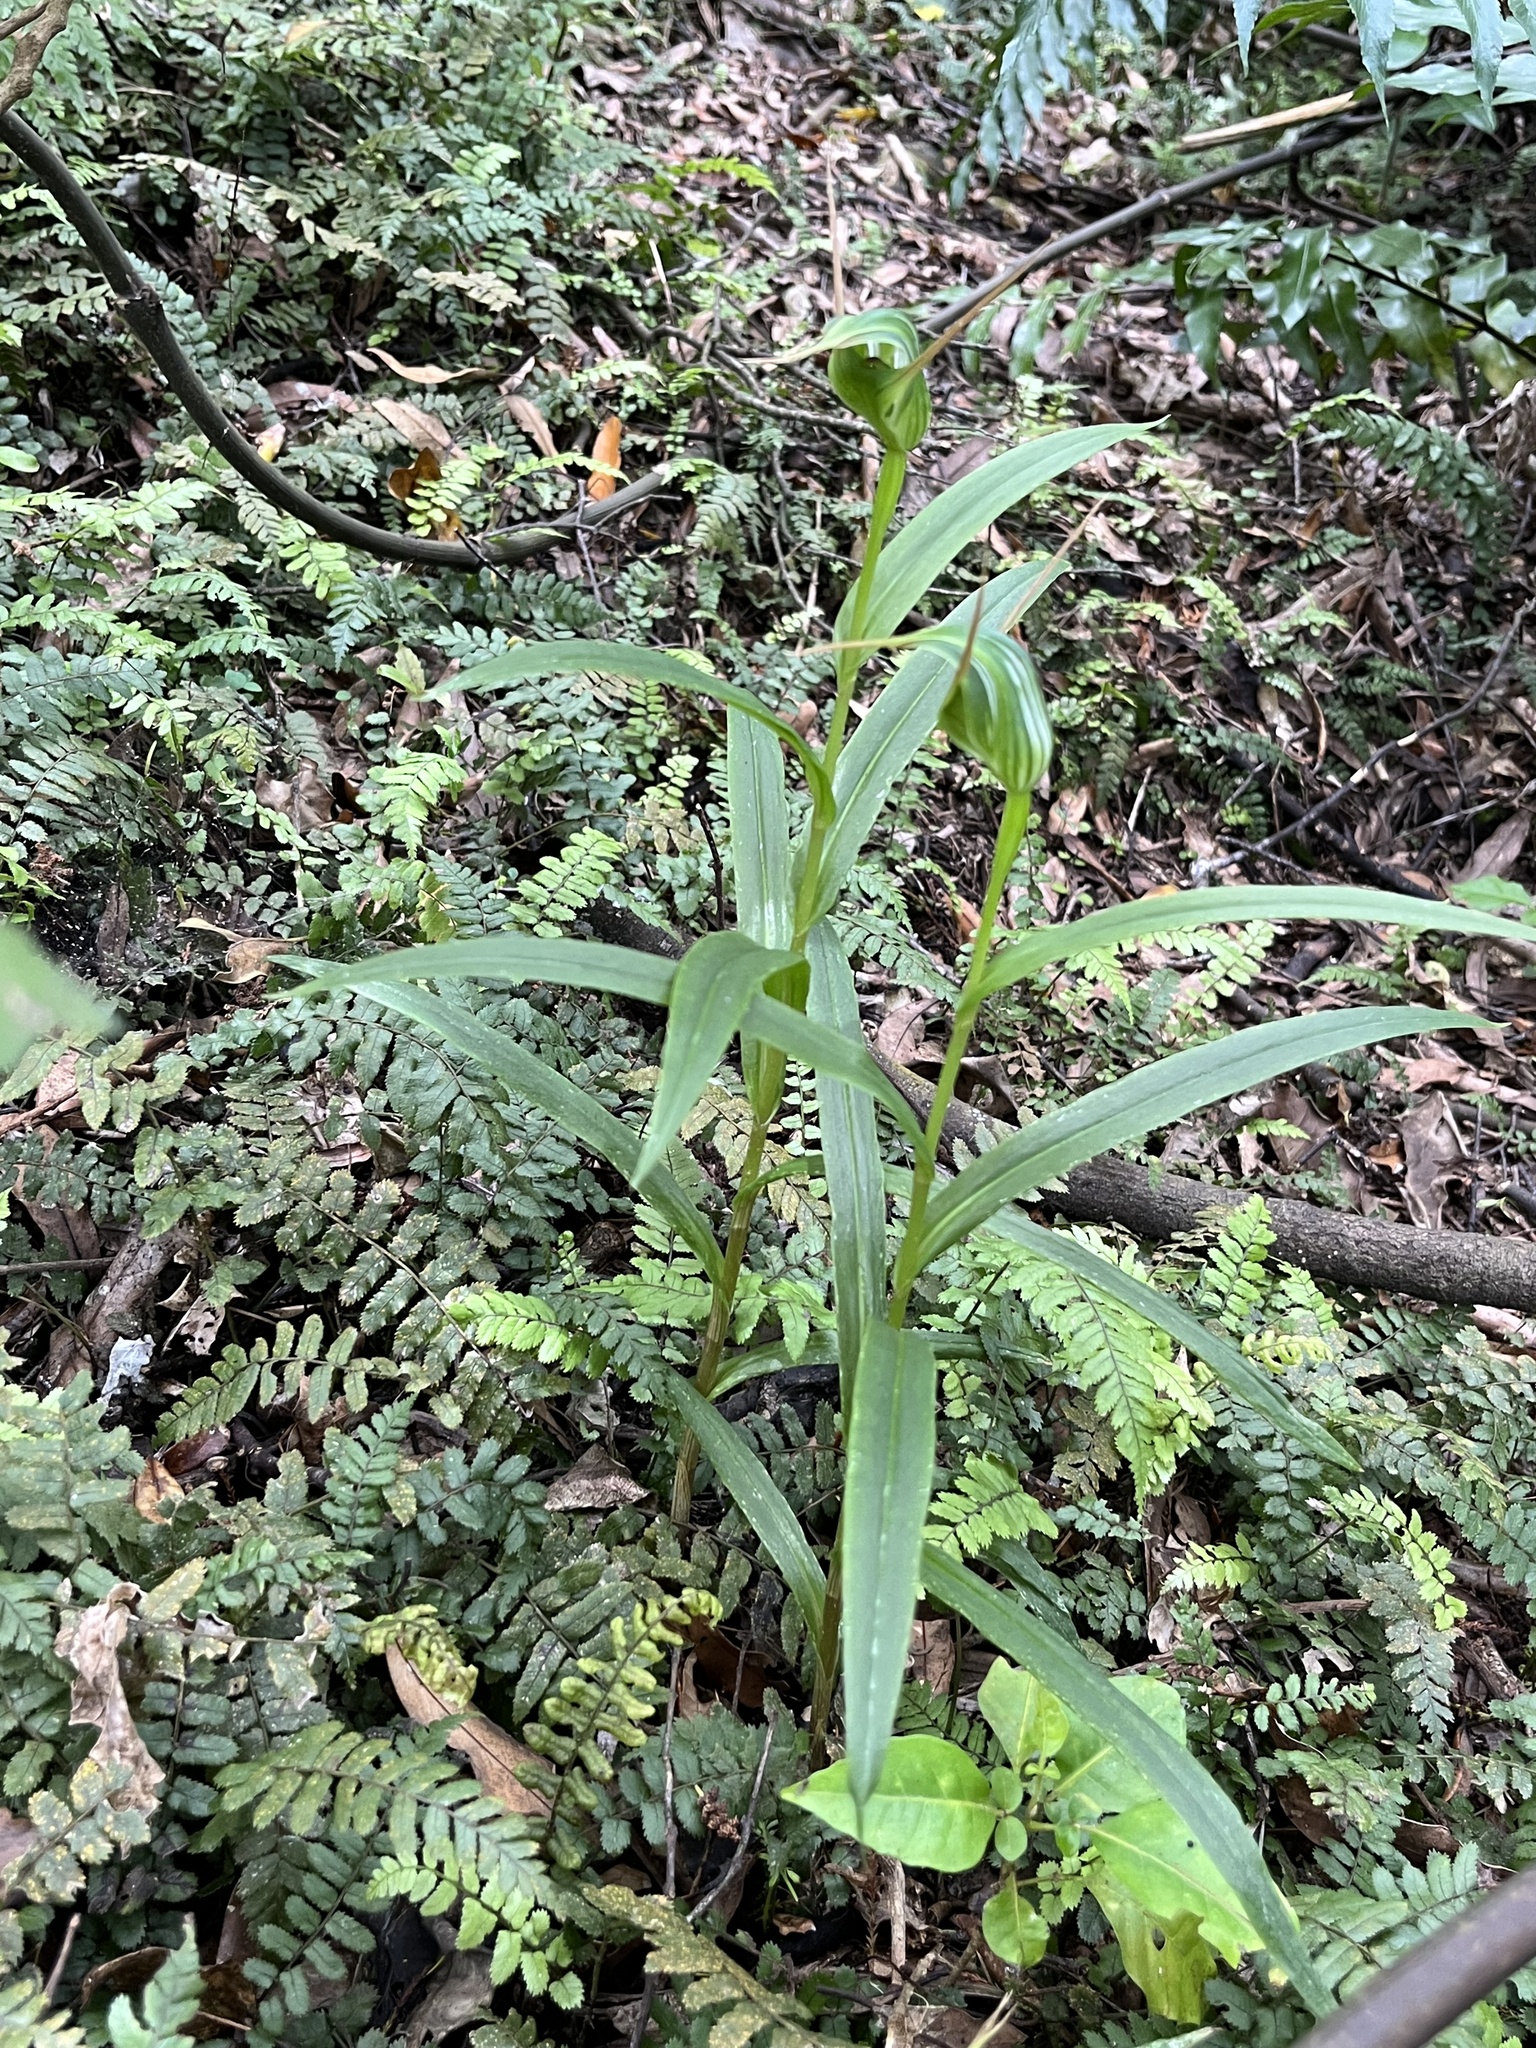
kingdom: Plantae
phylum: Tracheophyta
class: Liliopsida
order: Asparagales
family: Orchidaceae
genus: Pterostylis
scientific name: Pterostylis banksii
